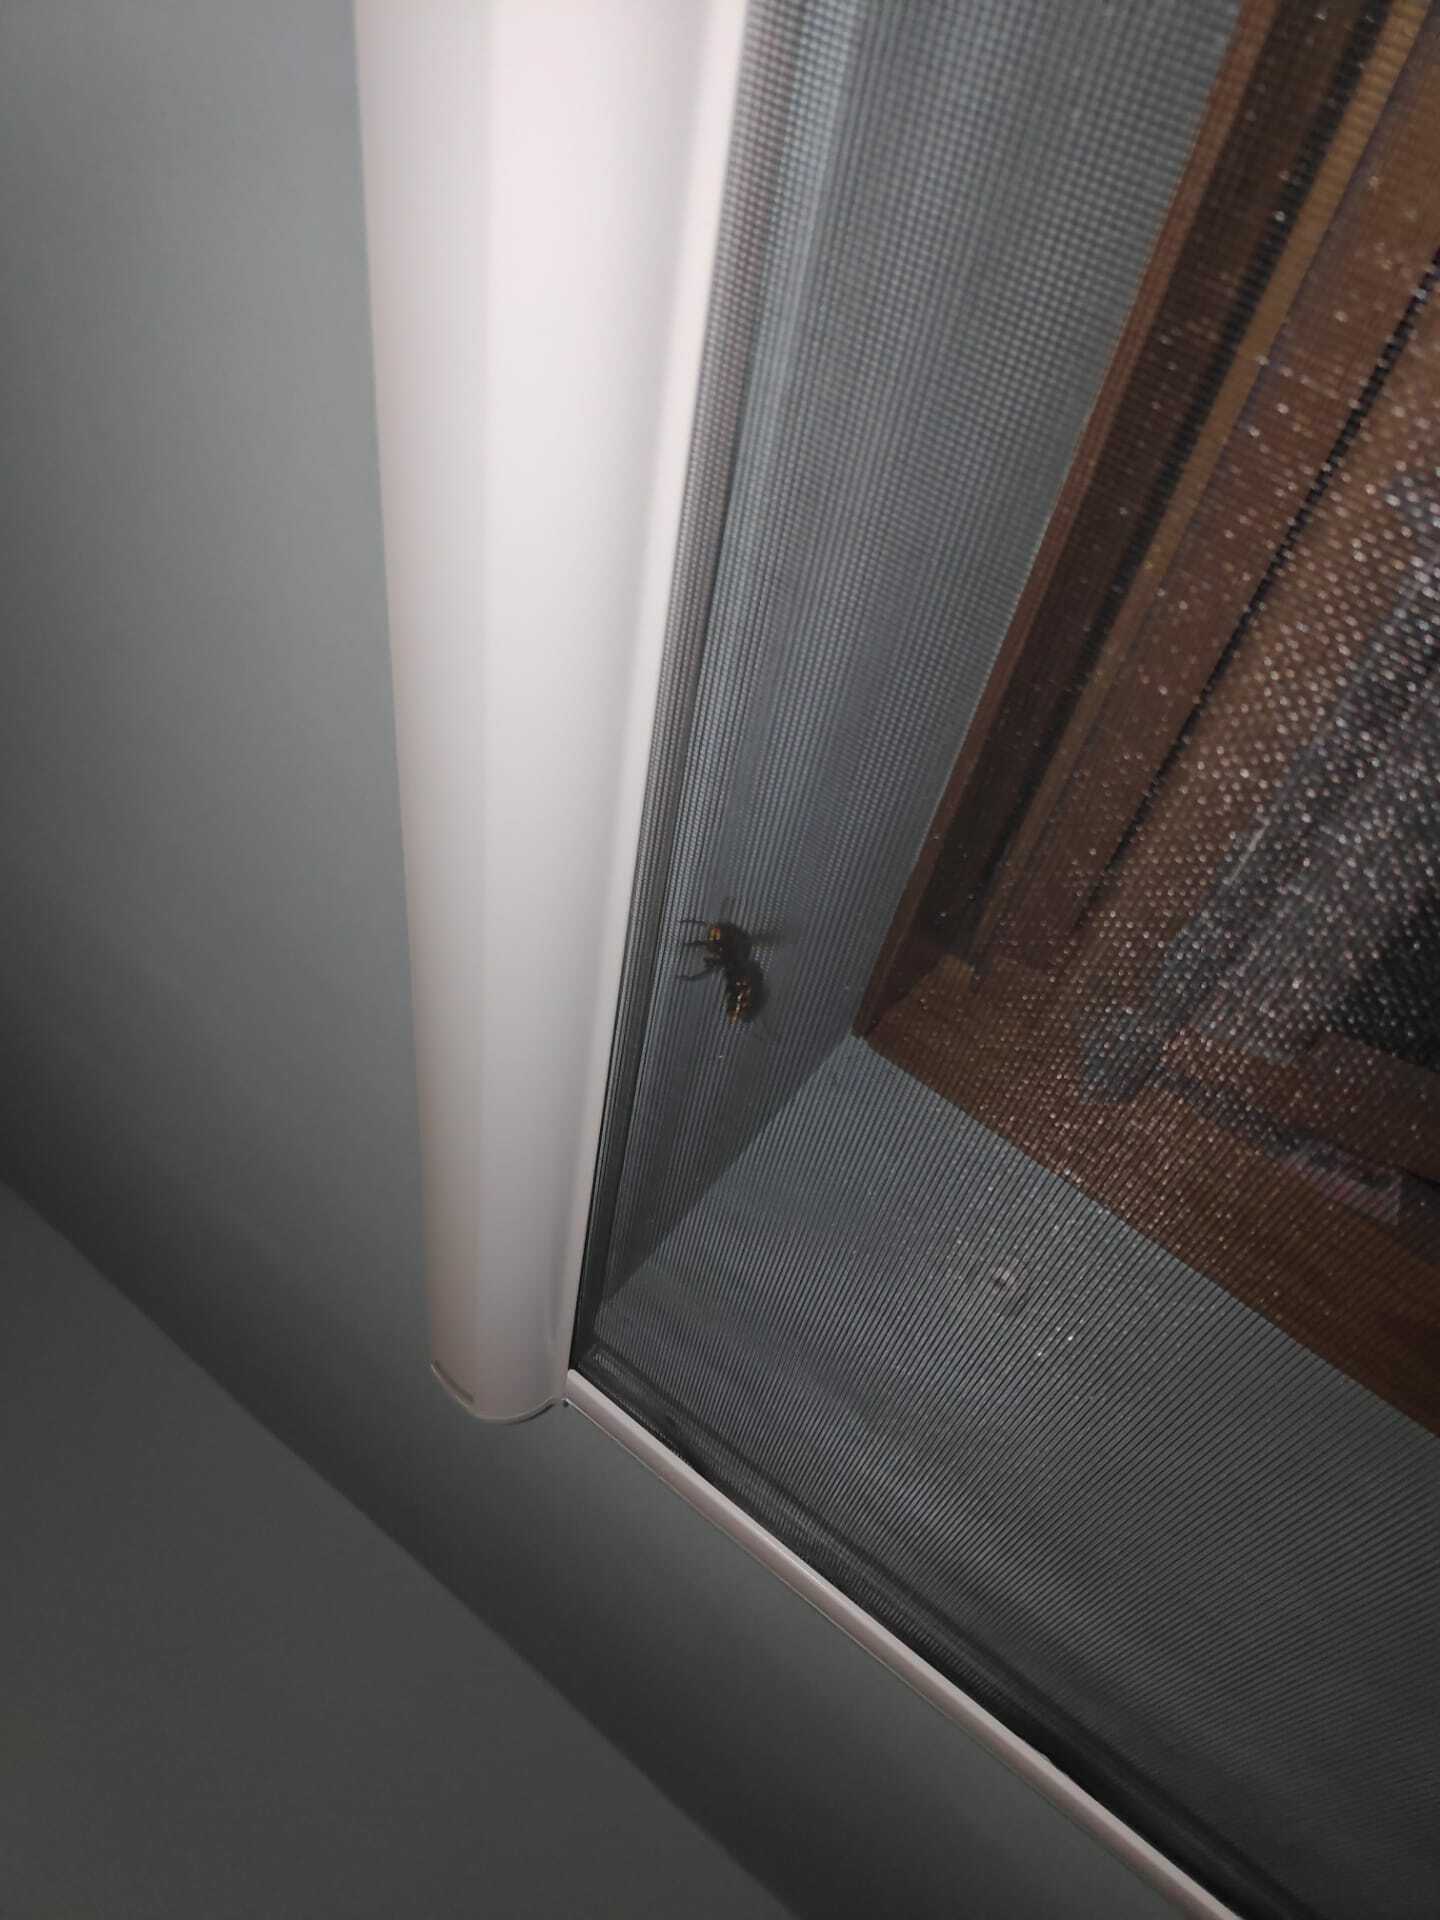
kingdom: Animalia
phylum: Arthropoda
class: Insecta
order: Hymenoptera
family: Vespidae
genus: Vespa
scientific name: Vespa crabro
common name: Hornet
